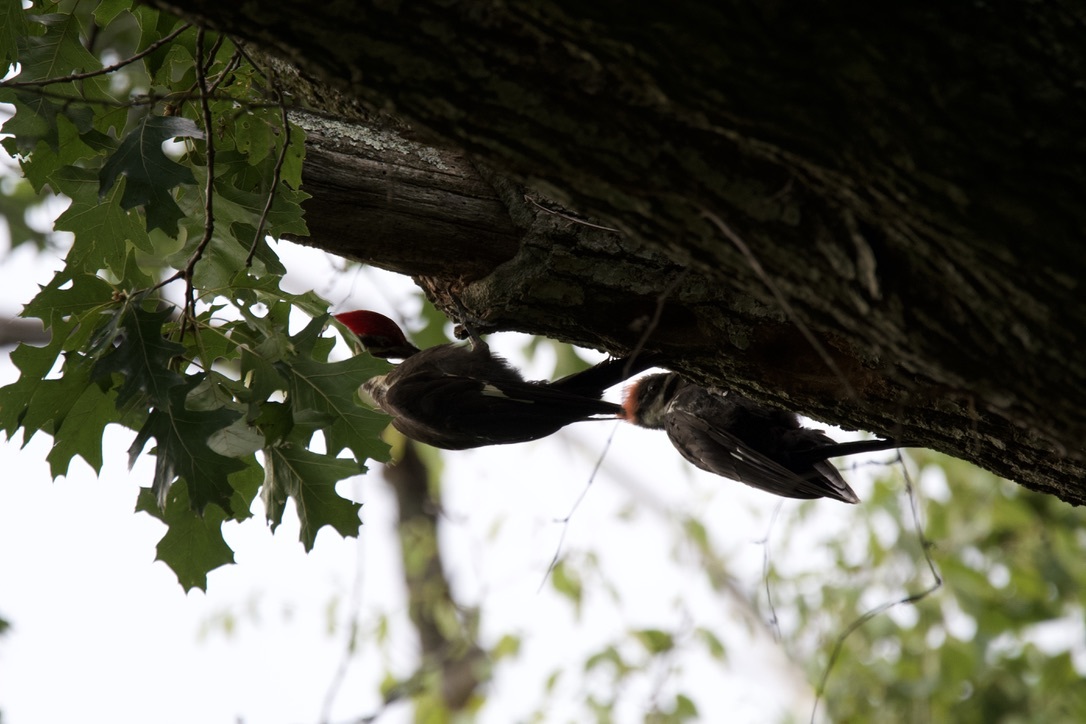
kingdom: Animalia
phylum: Chordata
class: Aves
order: Piciformes
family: Picidae
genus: Dryocopus
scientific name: Dryocopus pileatus
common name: Pileated woodpecker
